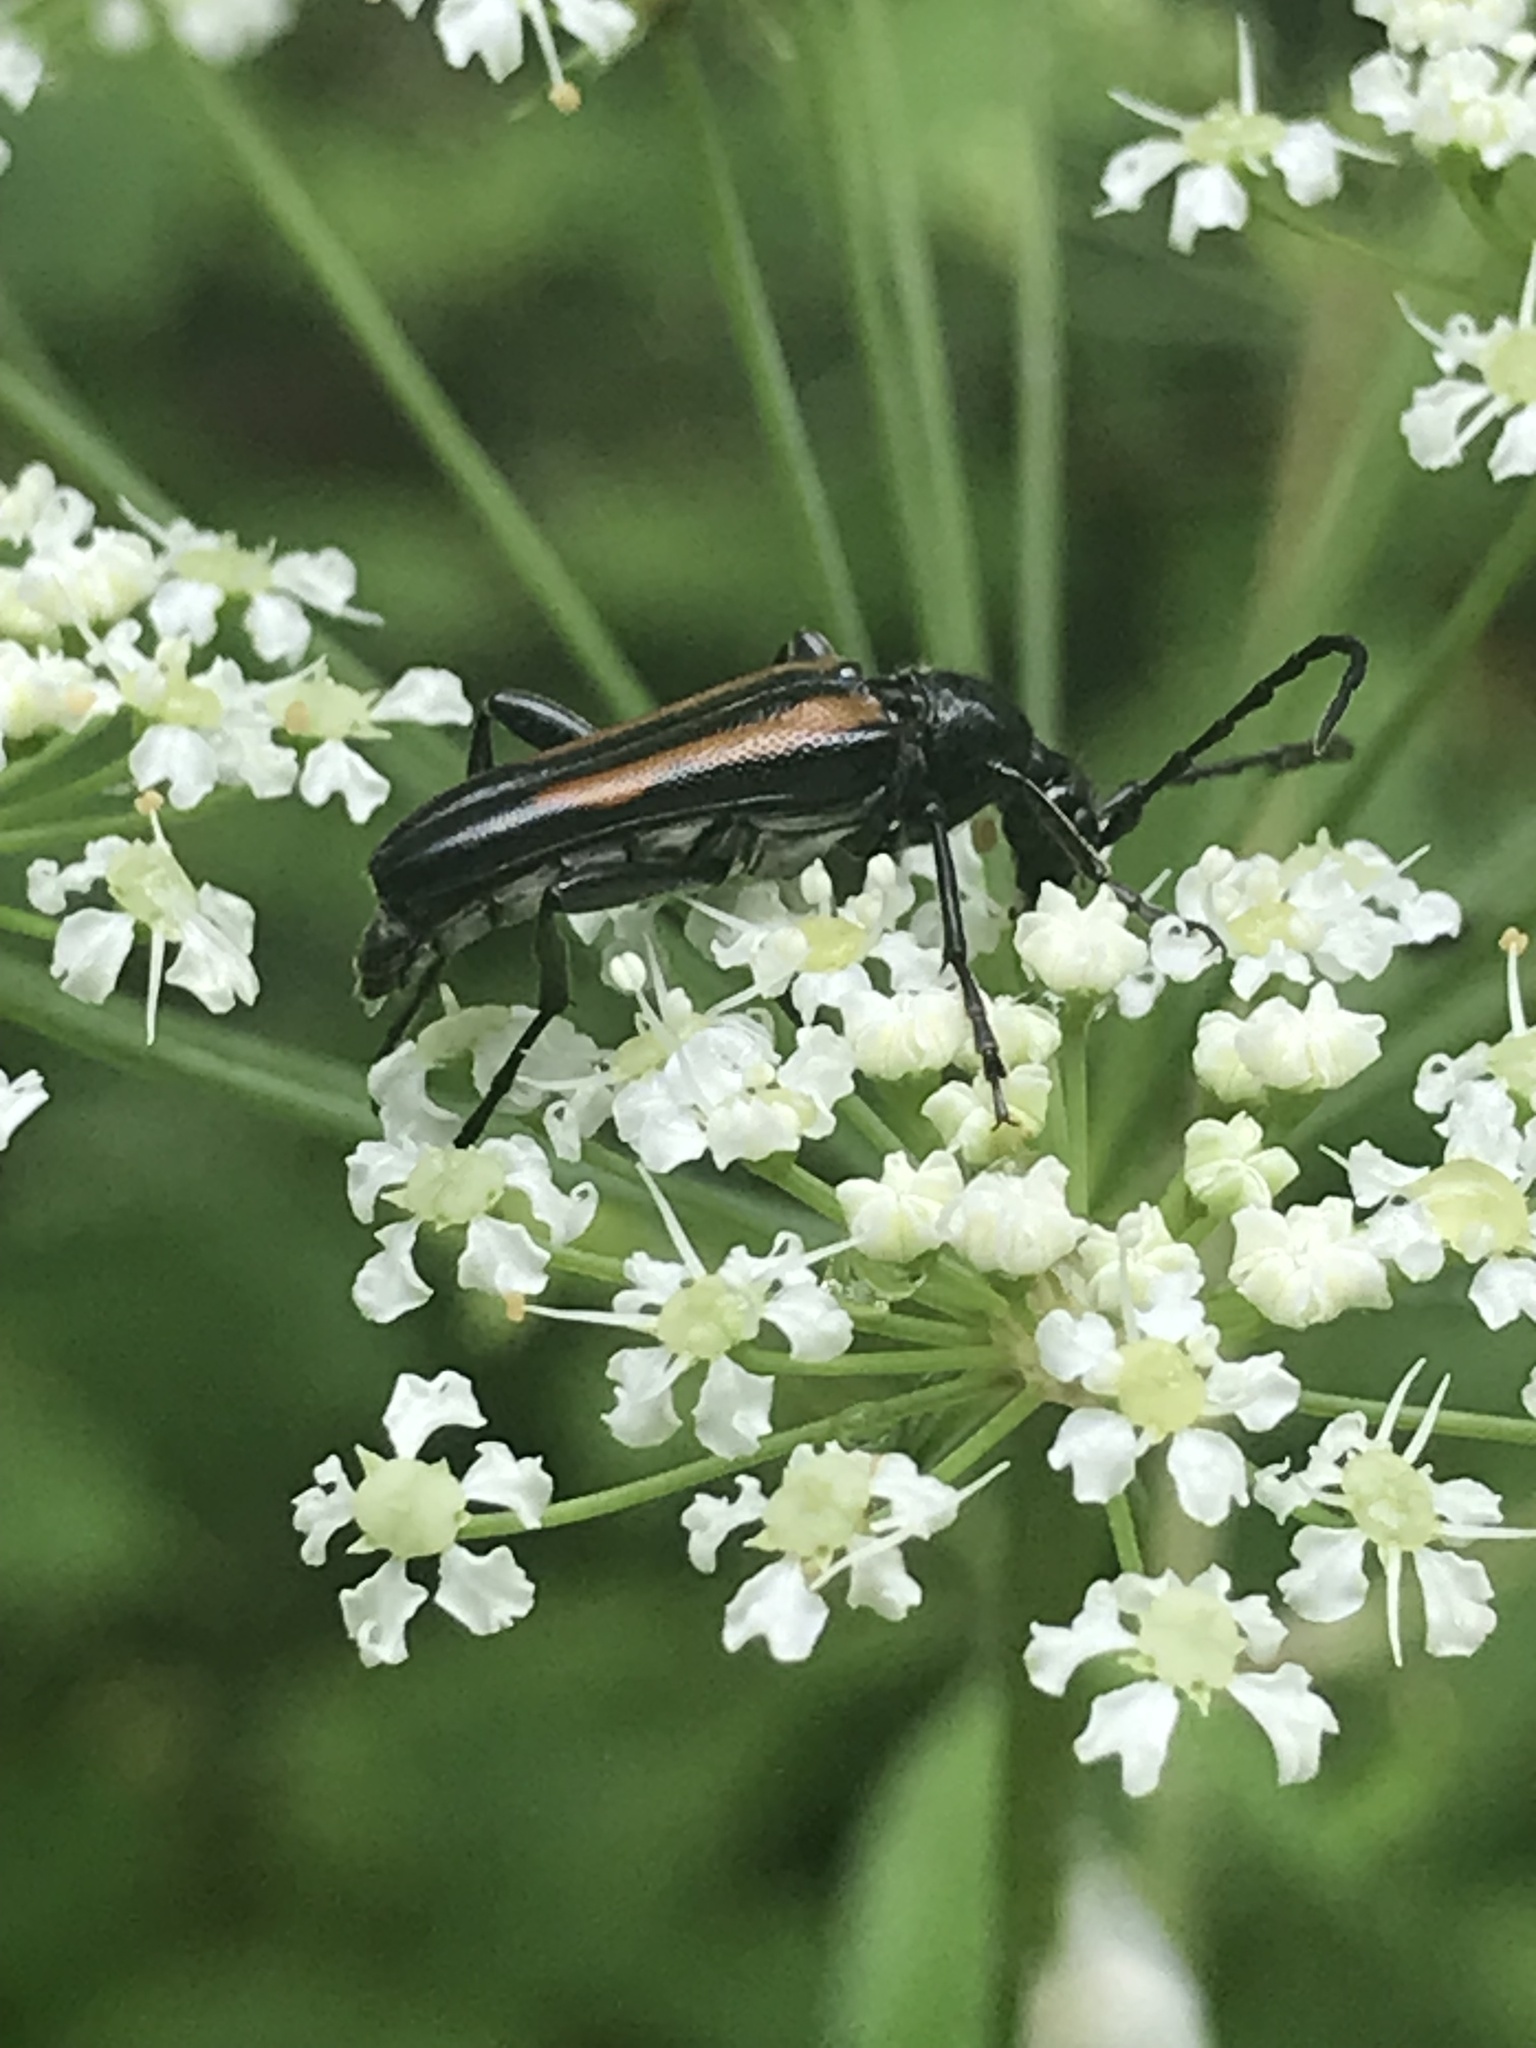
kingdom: Animalia
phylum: Arthropoda
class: Insecta
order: Coleoptera
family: Cerambycidae
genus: Strangalepta
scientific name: Strangalepta abbreviata
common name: Strangalepta flower longhorn beetle
